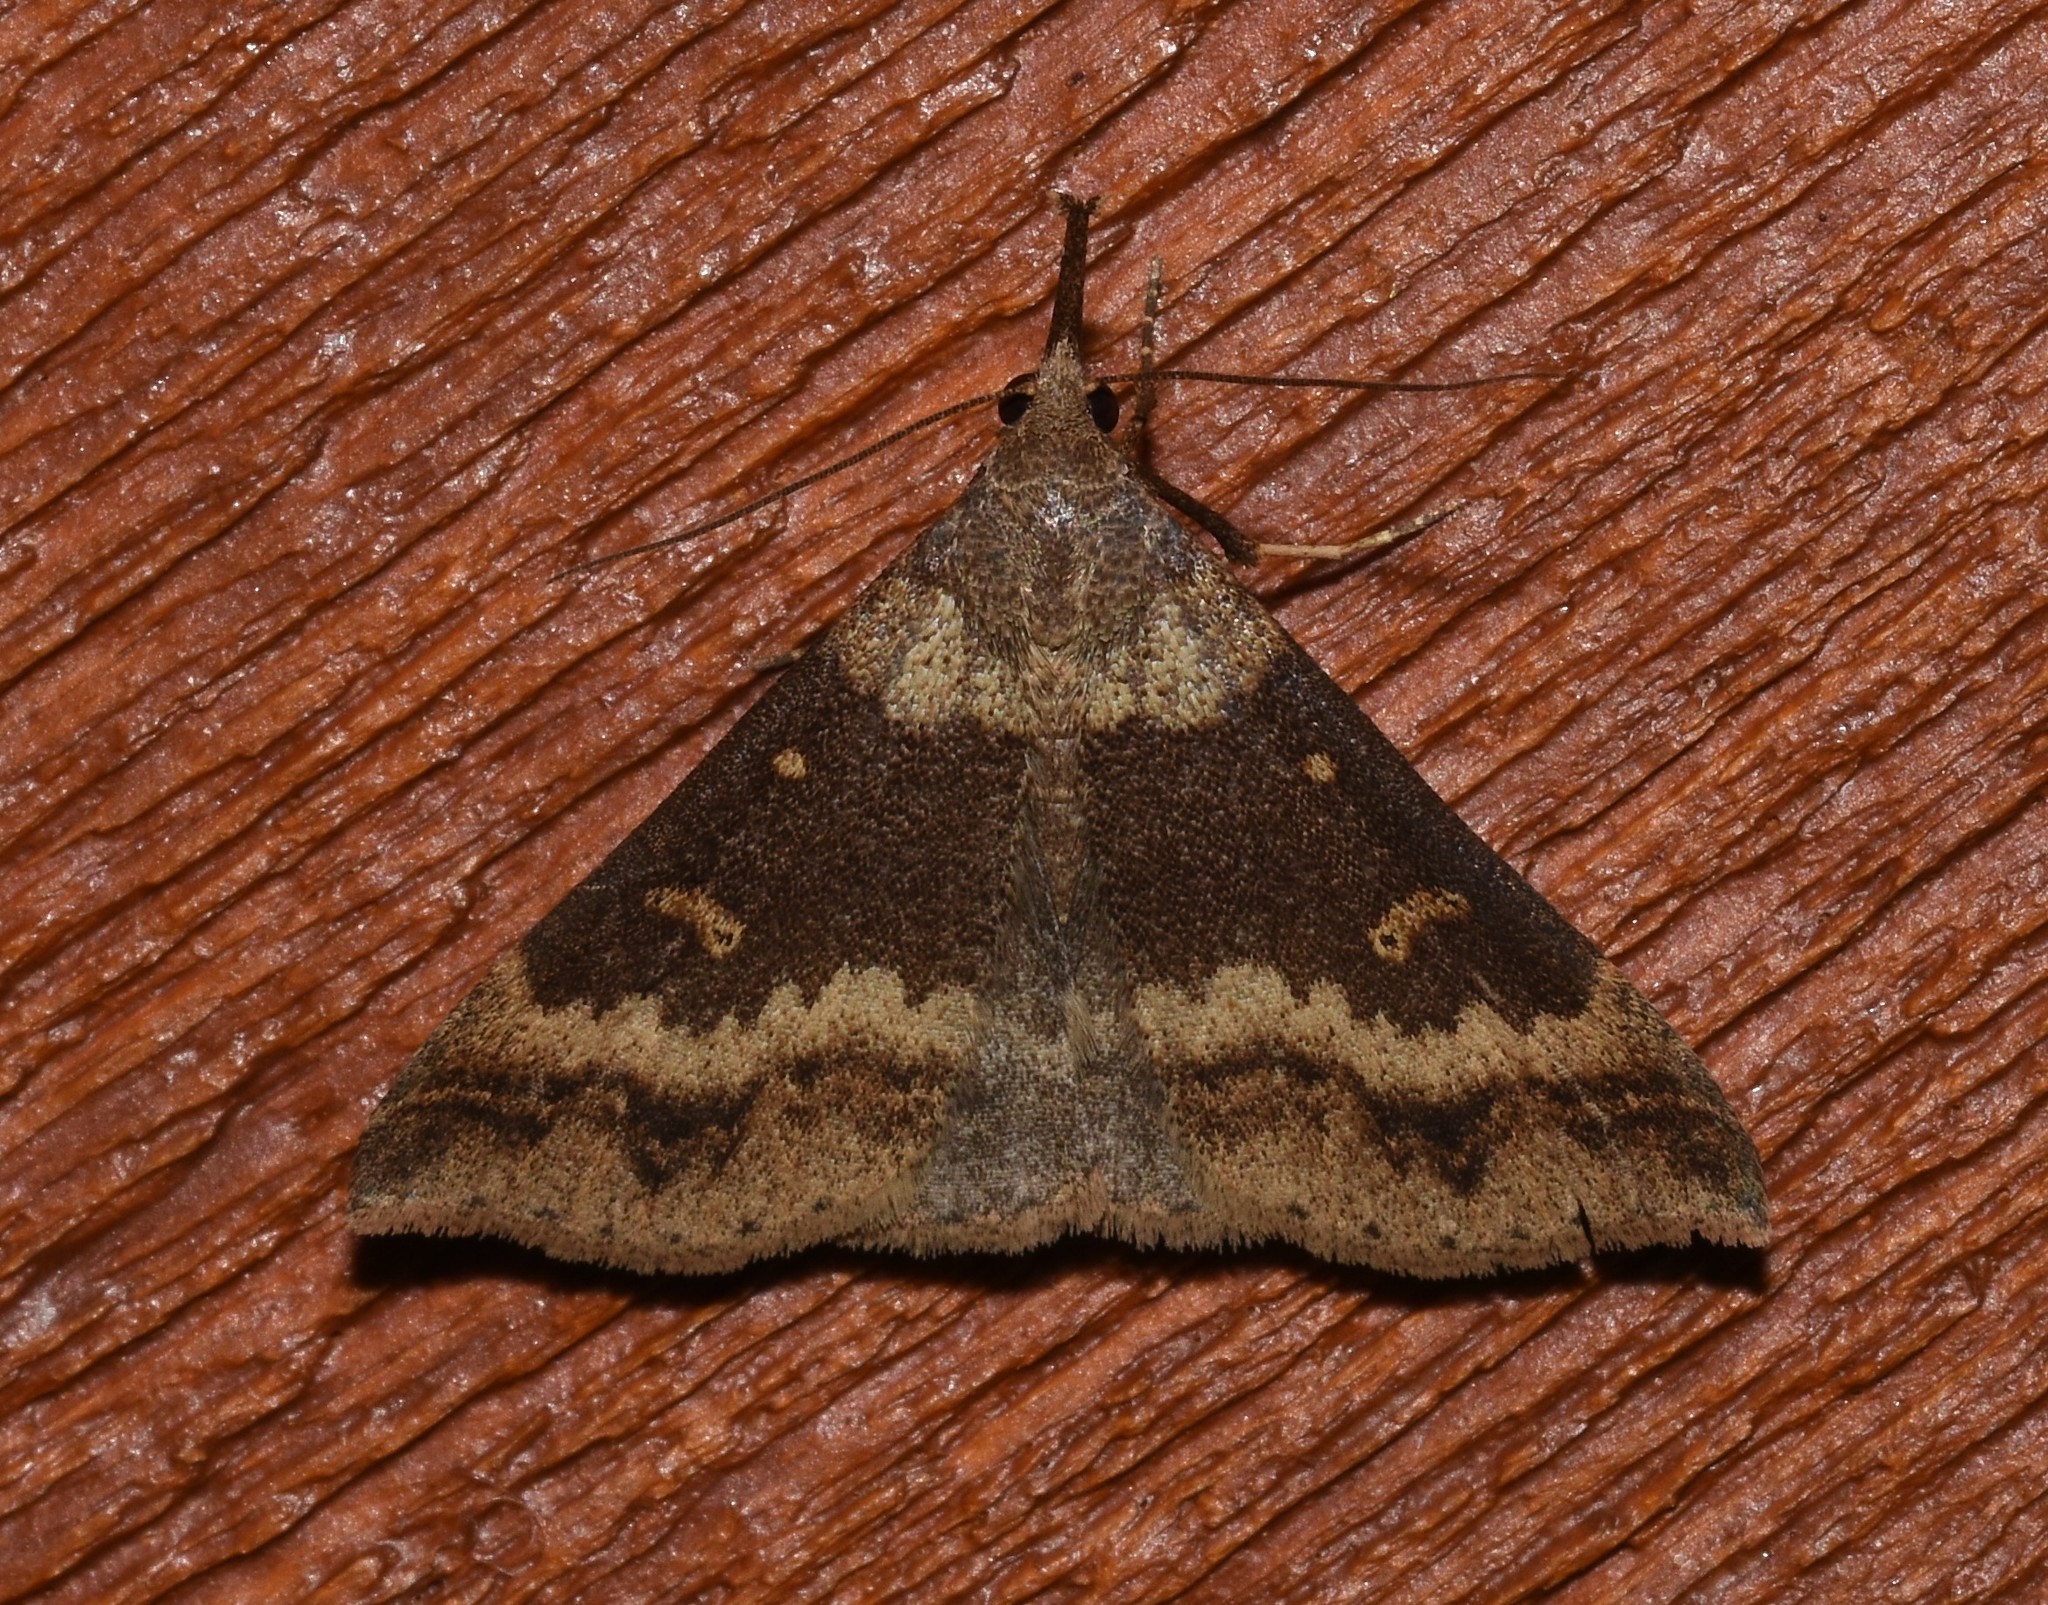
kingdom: Animalia
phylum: Arthropoda
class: Insecta
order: Lepidoptera
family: Erebidae
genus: Renia
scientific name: Renia discoloralis
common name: Discolored renia moth
